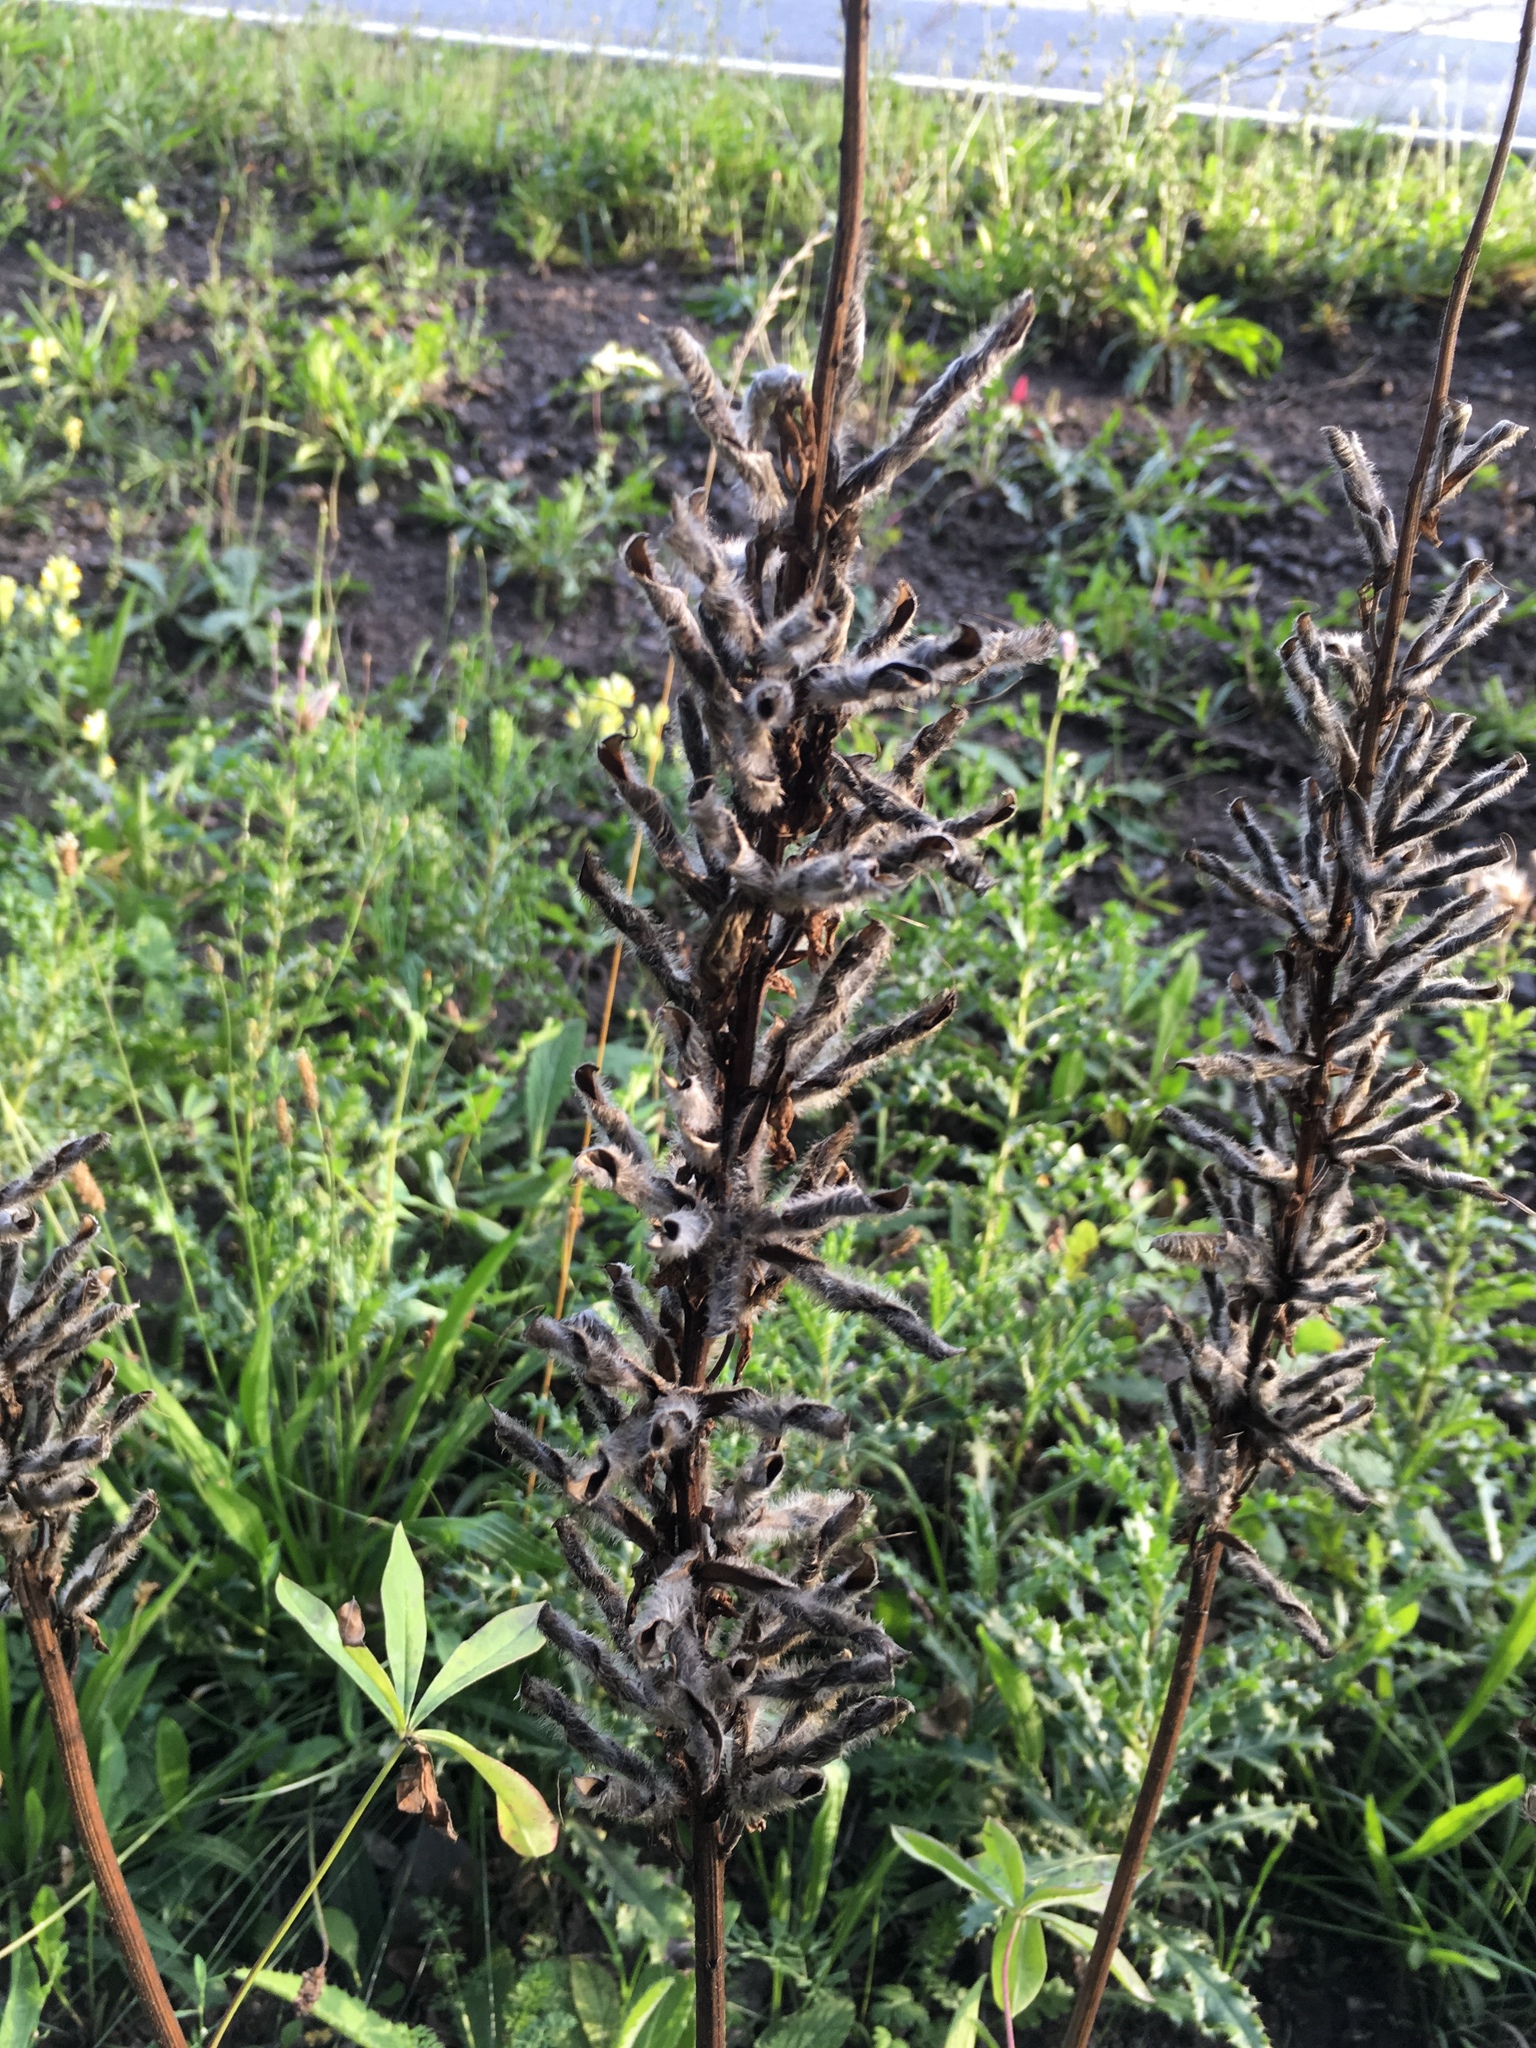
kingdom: Plantae
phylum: Tracheophyta
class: Magnoliopsida
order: Fabales
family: Fabaceae
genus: Lupinus
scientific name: Lupinus polyphyllus
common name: Garden lupin
